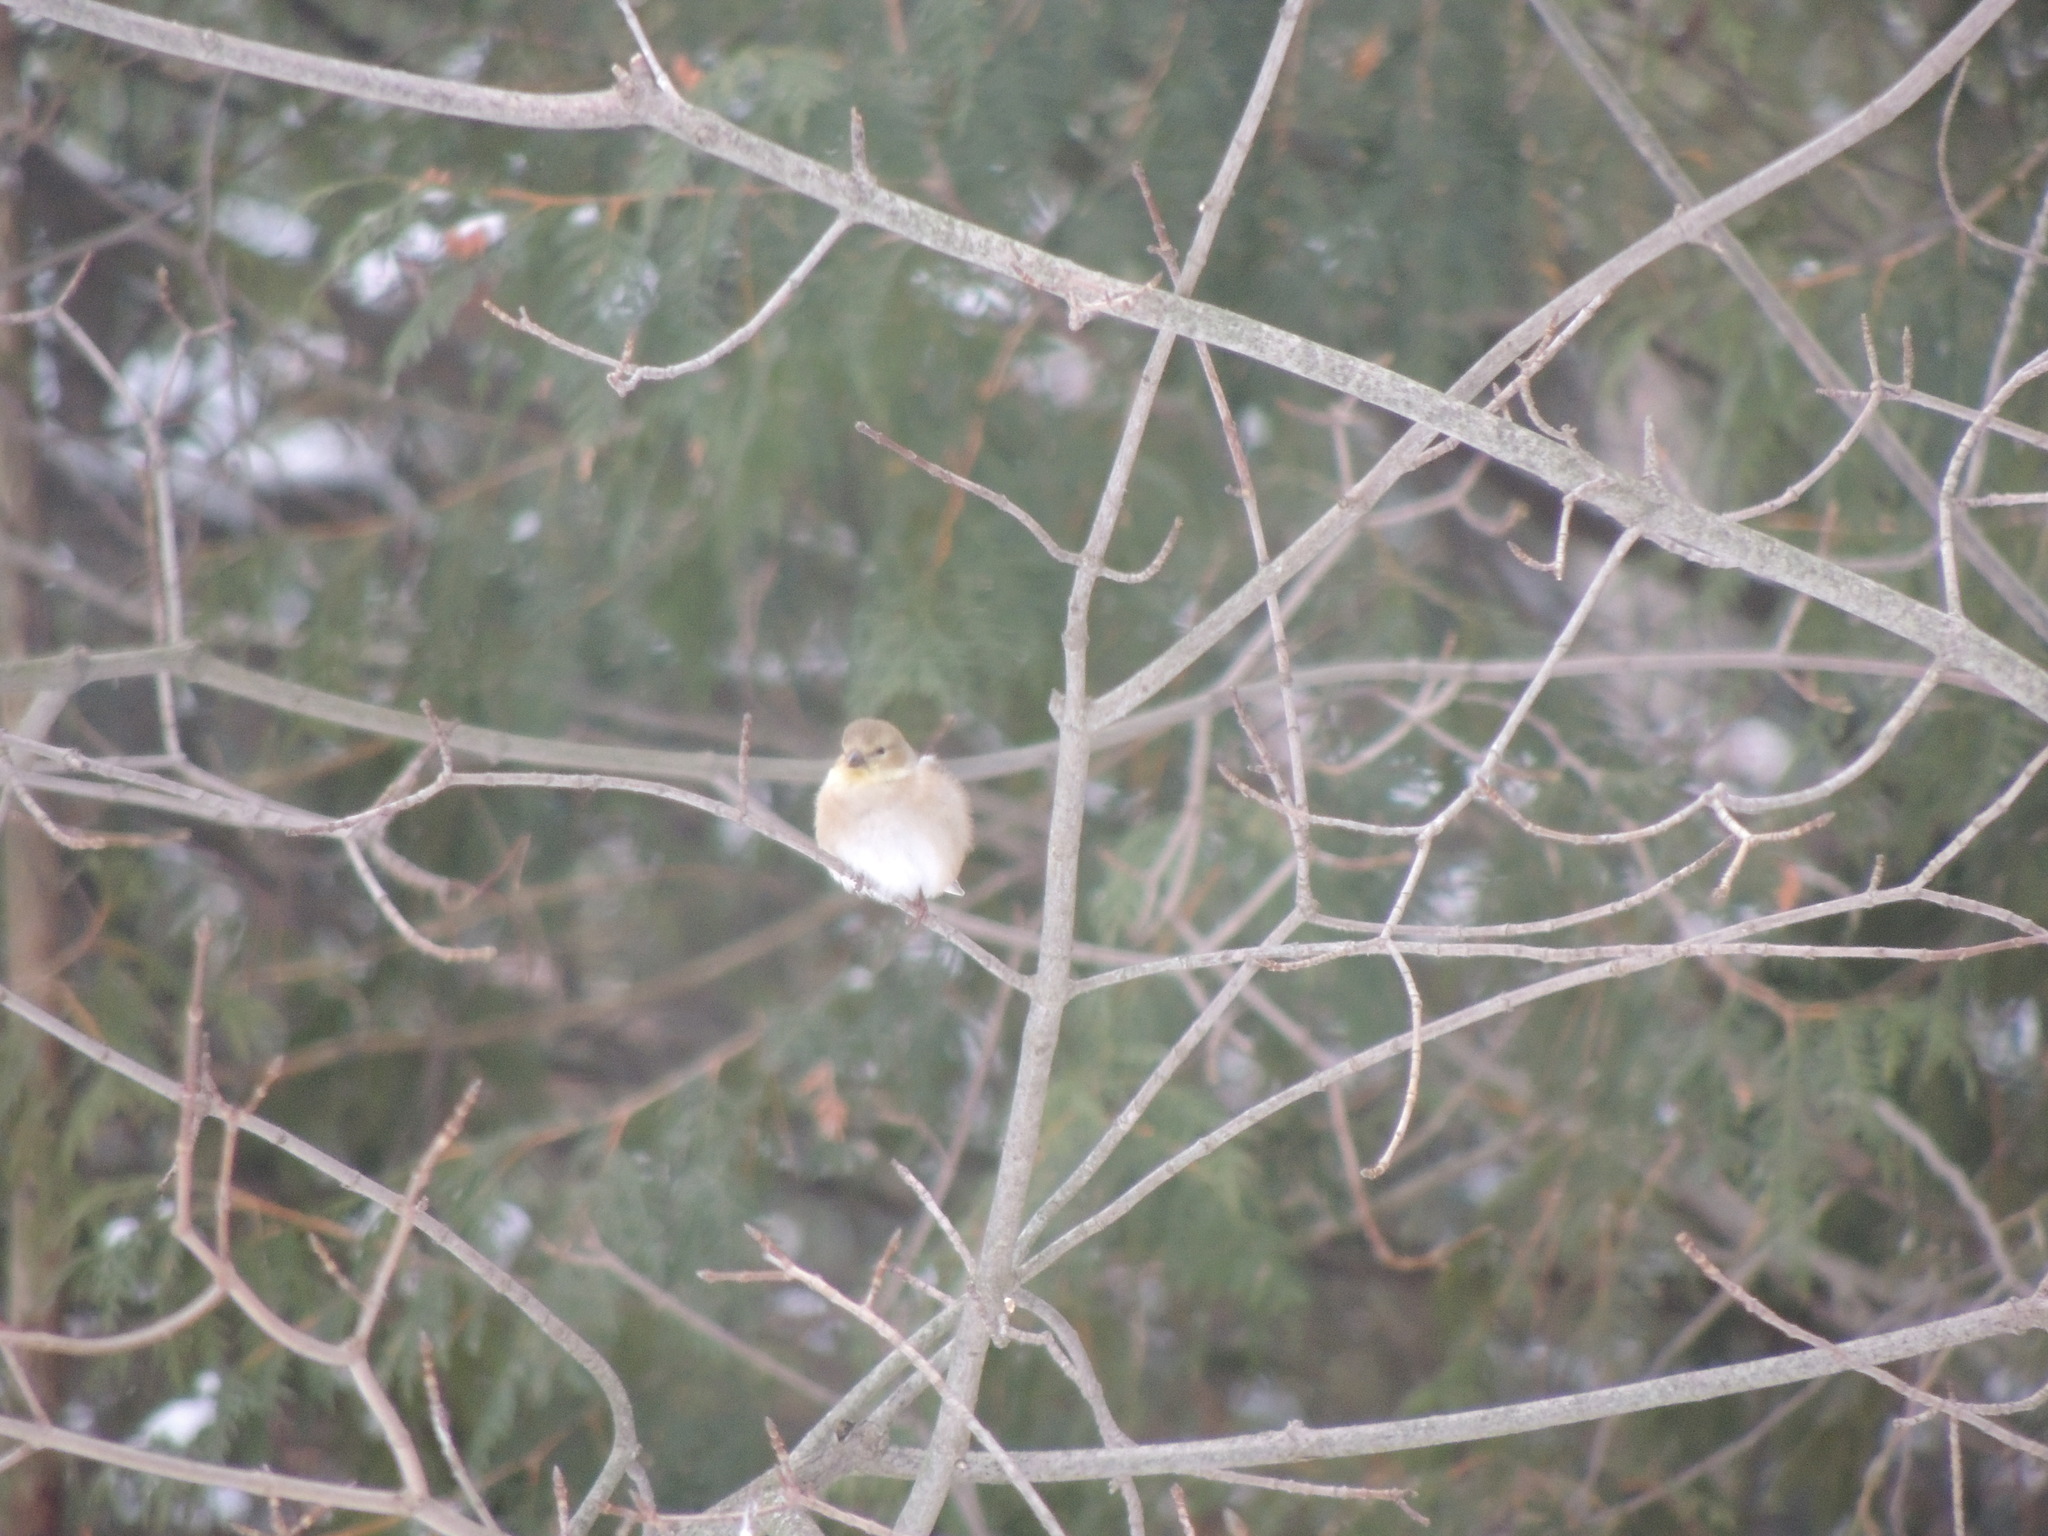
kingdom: Animalia
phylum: Chordata
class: Aves
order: Passeriformes
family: Fringillidae
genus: Spinus
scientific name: Spinus tristis
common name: American goldfinch
